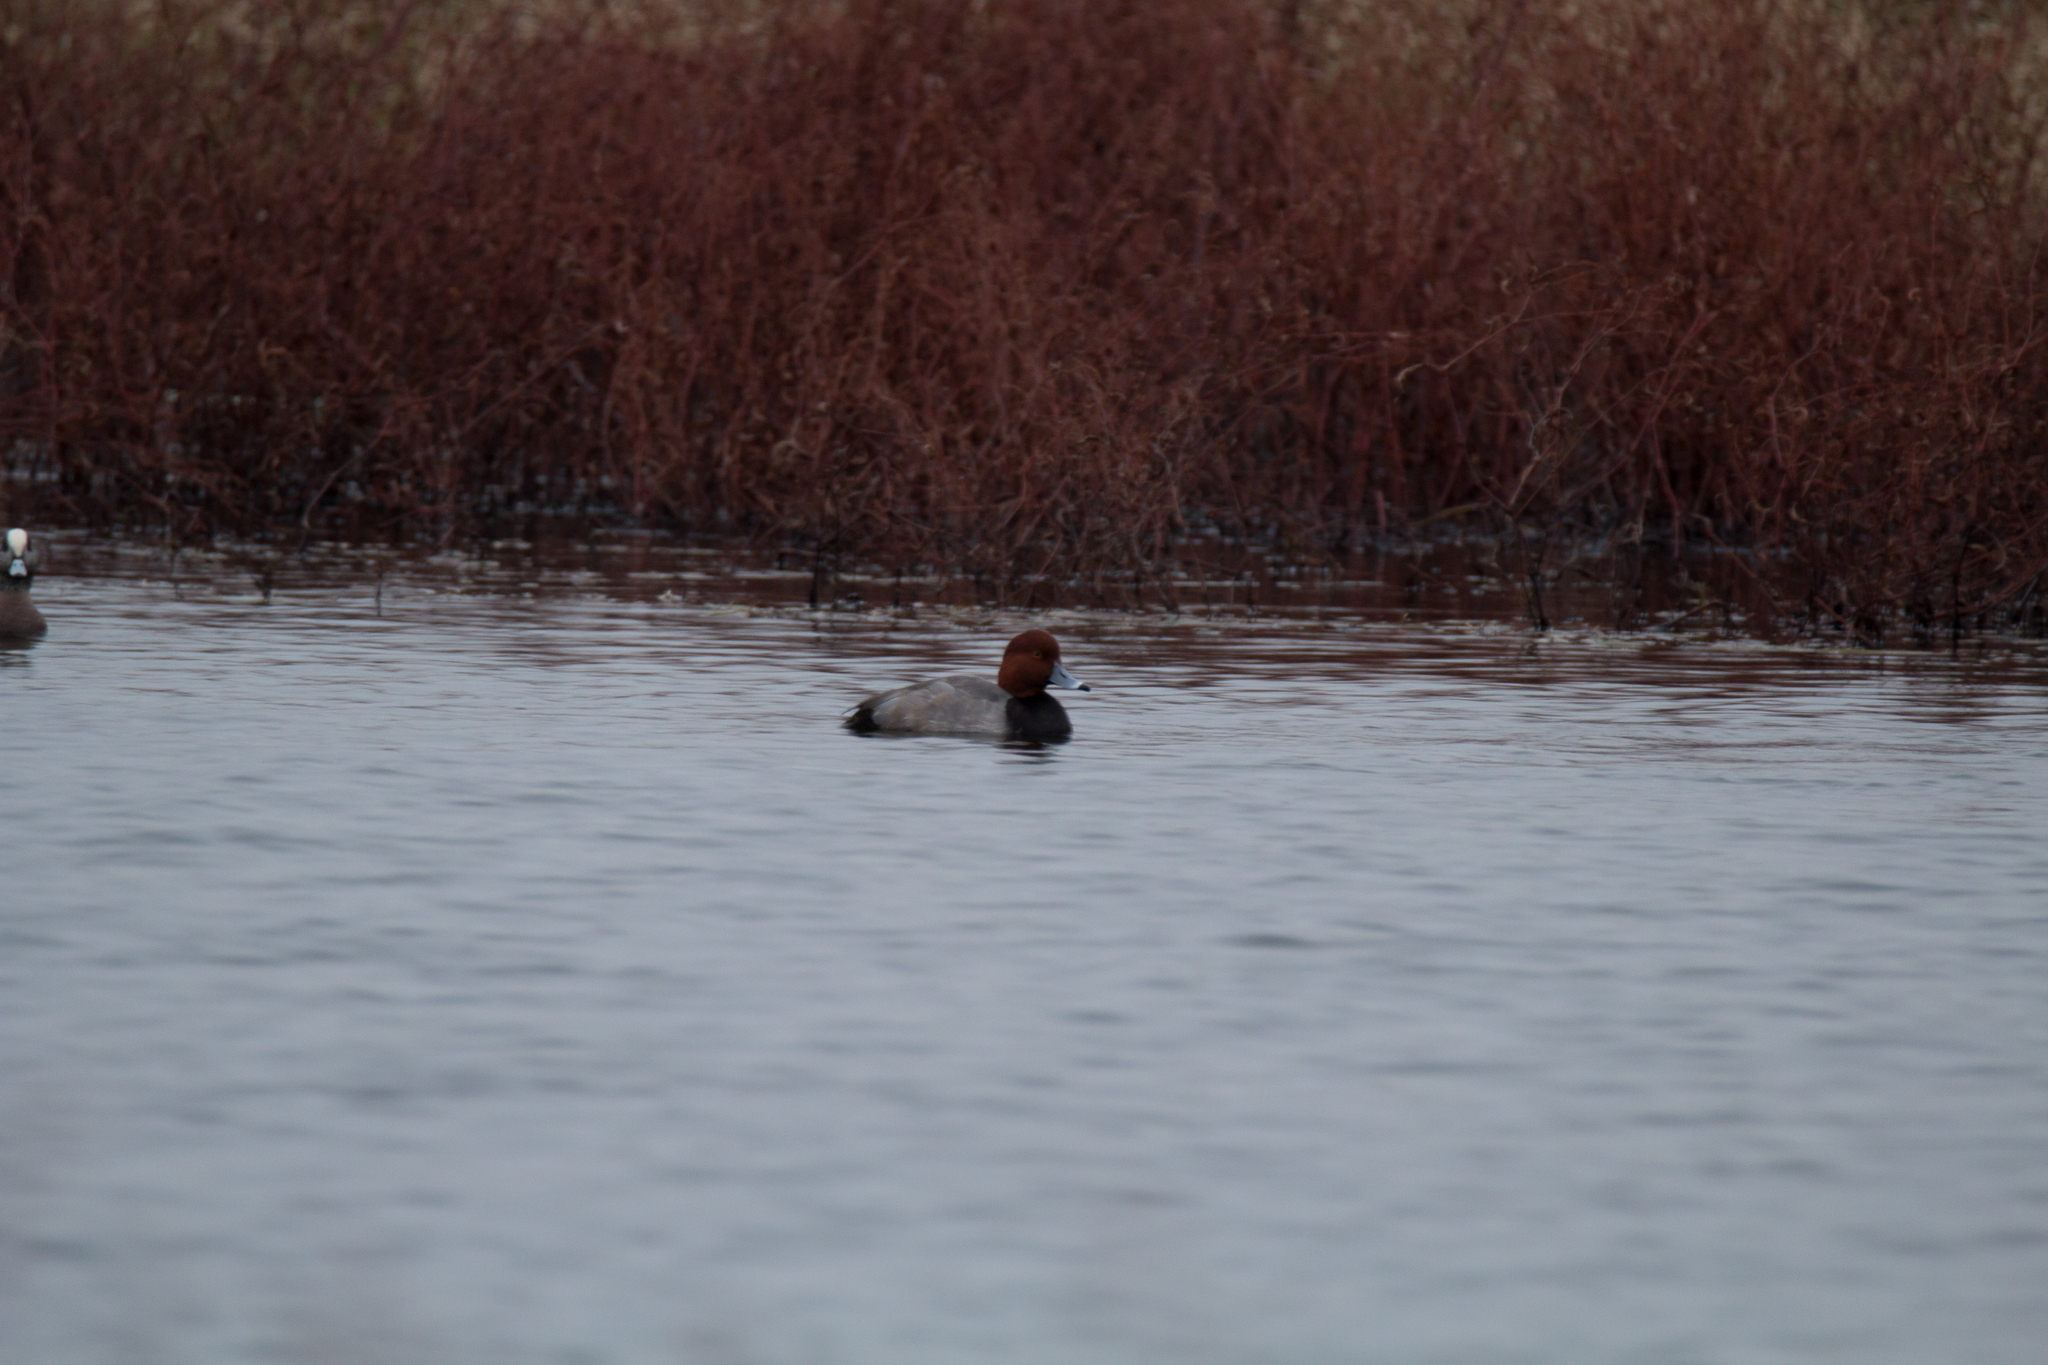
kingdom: Animalia
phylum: Chordata
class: Aves
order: Anseriformes
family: Anatidae
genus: Aythya
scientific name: Aythya americana
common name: Redhead
